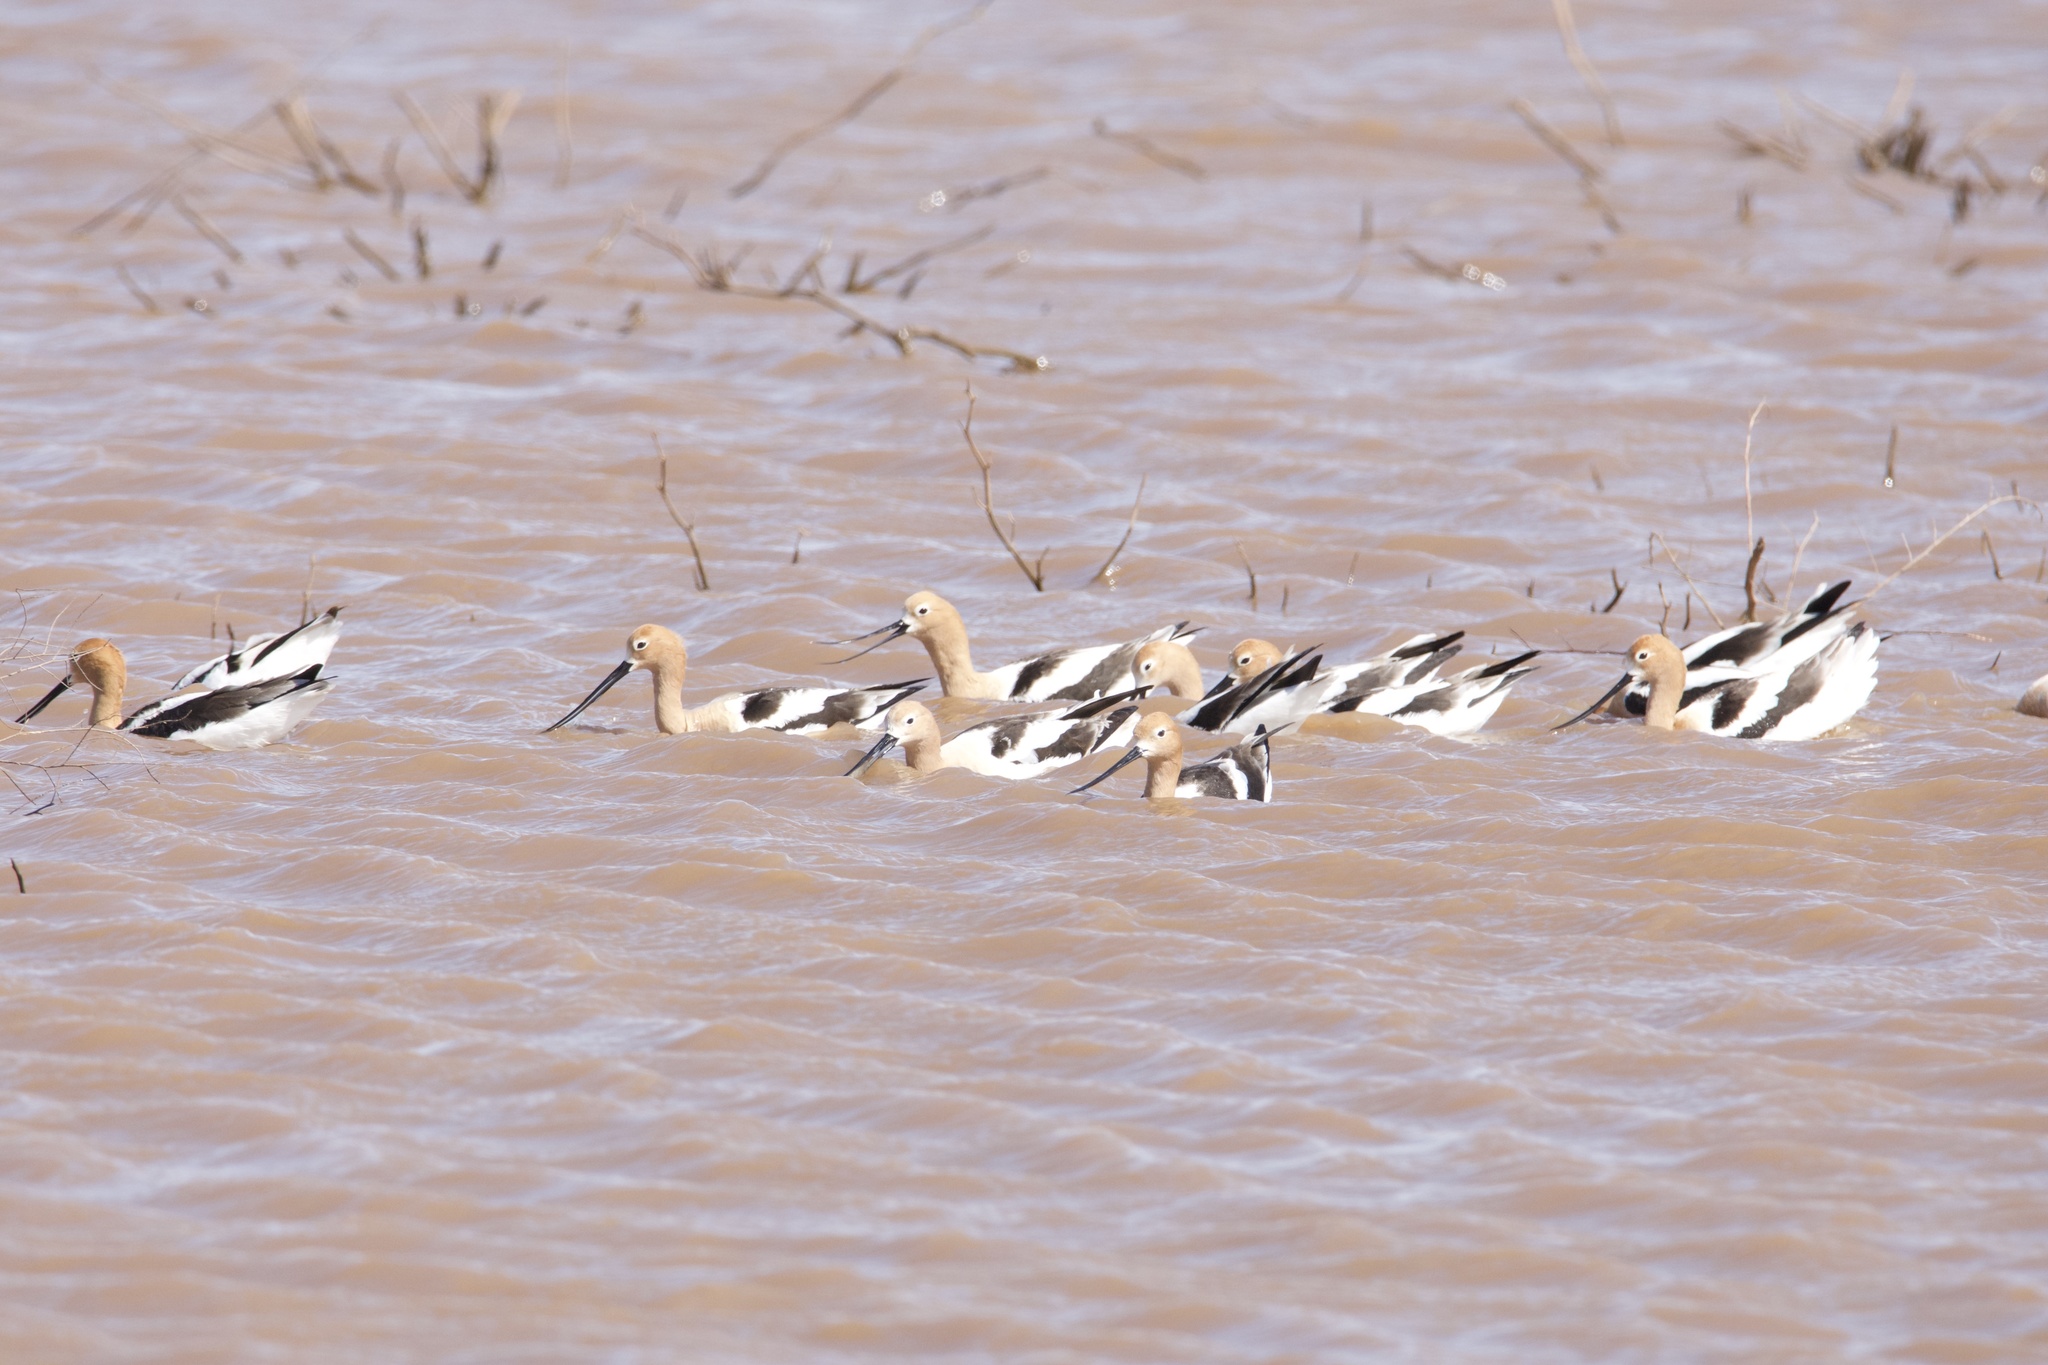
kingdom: Animalia
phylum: Chordata
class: Aves
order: Charadriiformes
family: Recurvirostridae
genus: Recurvirostra
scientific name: Recurvirostra americana
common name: American avocet
